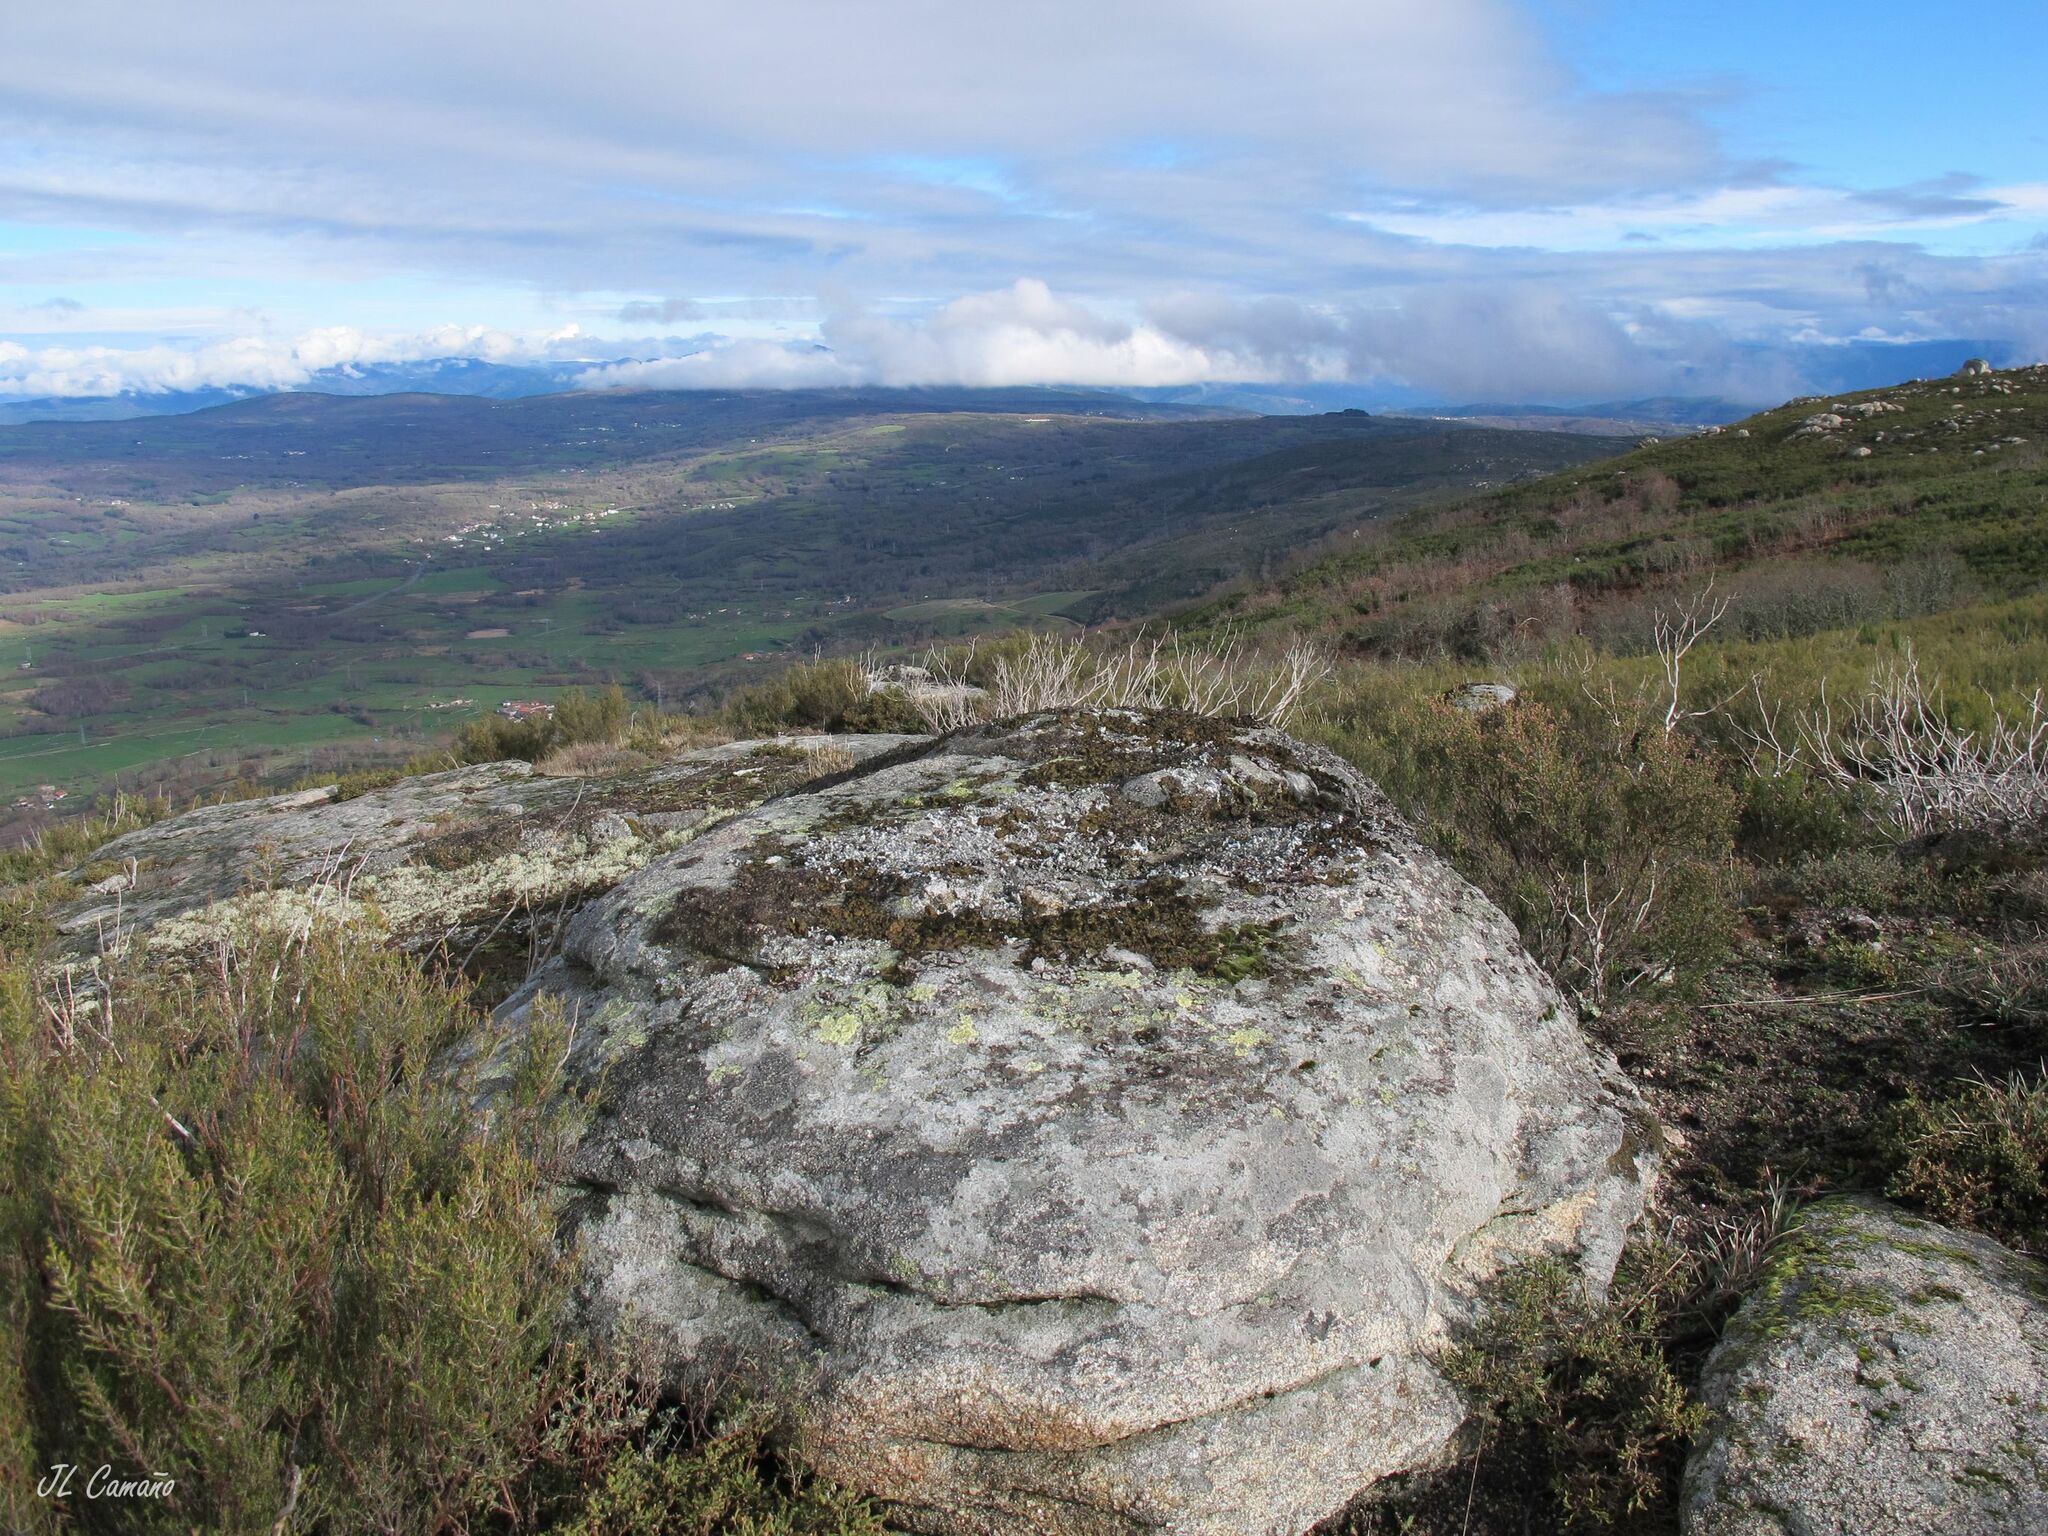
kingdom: Plantae
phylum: Bryophyta
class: Bryopsida
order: Grimmiales
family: Grimmiaceae
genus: Niphotrichum
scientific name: Niphotrichum elongatum
